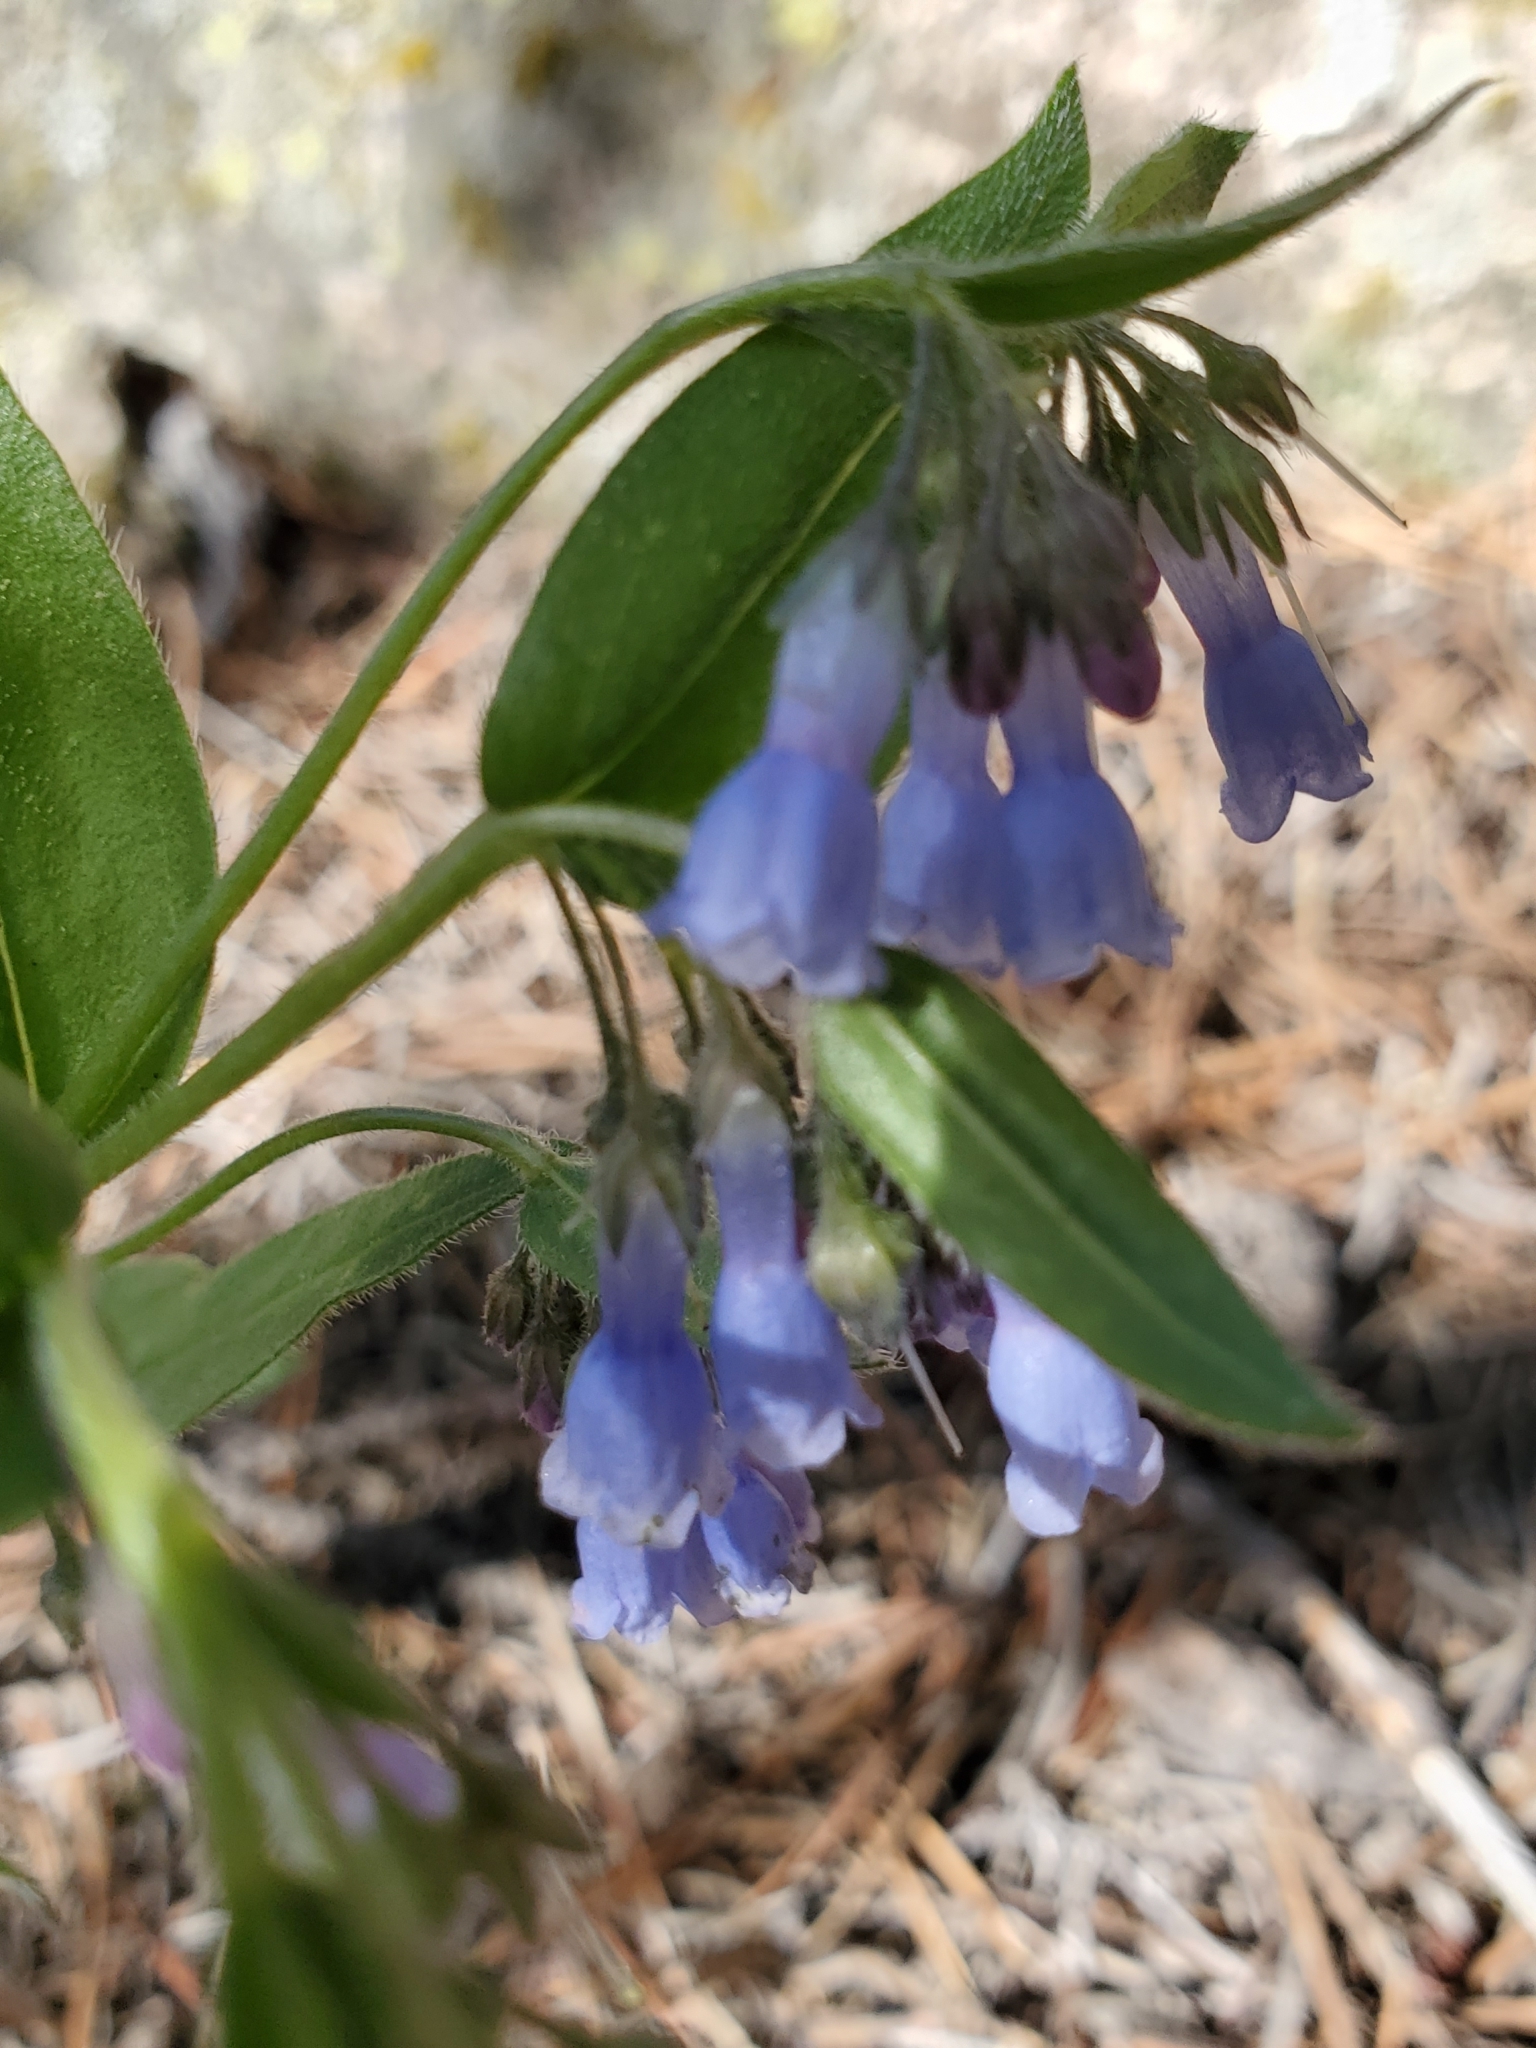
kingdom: Plantae
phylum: Tracheophyta
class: Magnoliopsida
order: Boraginales
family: Boraginaceae
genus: Mertensia
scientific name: Mertensia ciliata
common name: Tall chiming-bells
